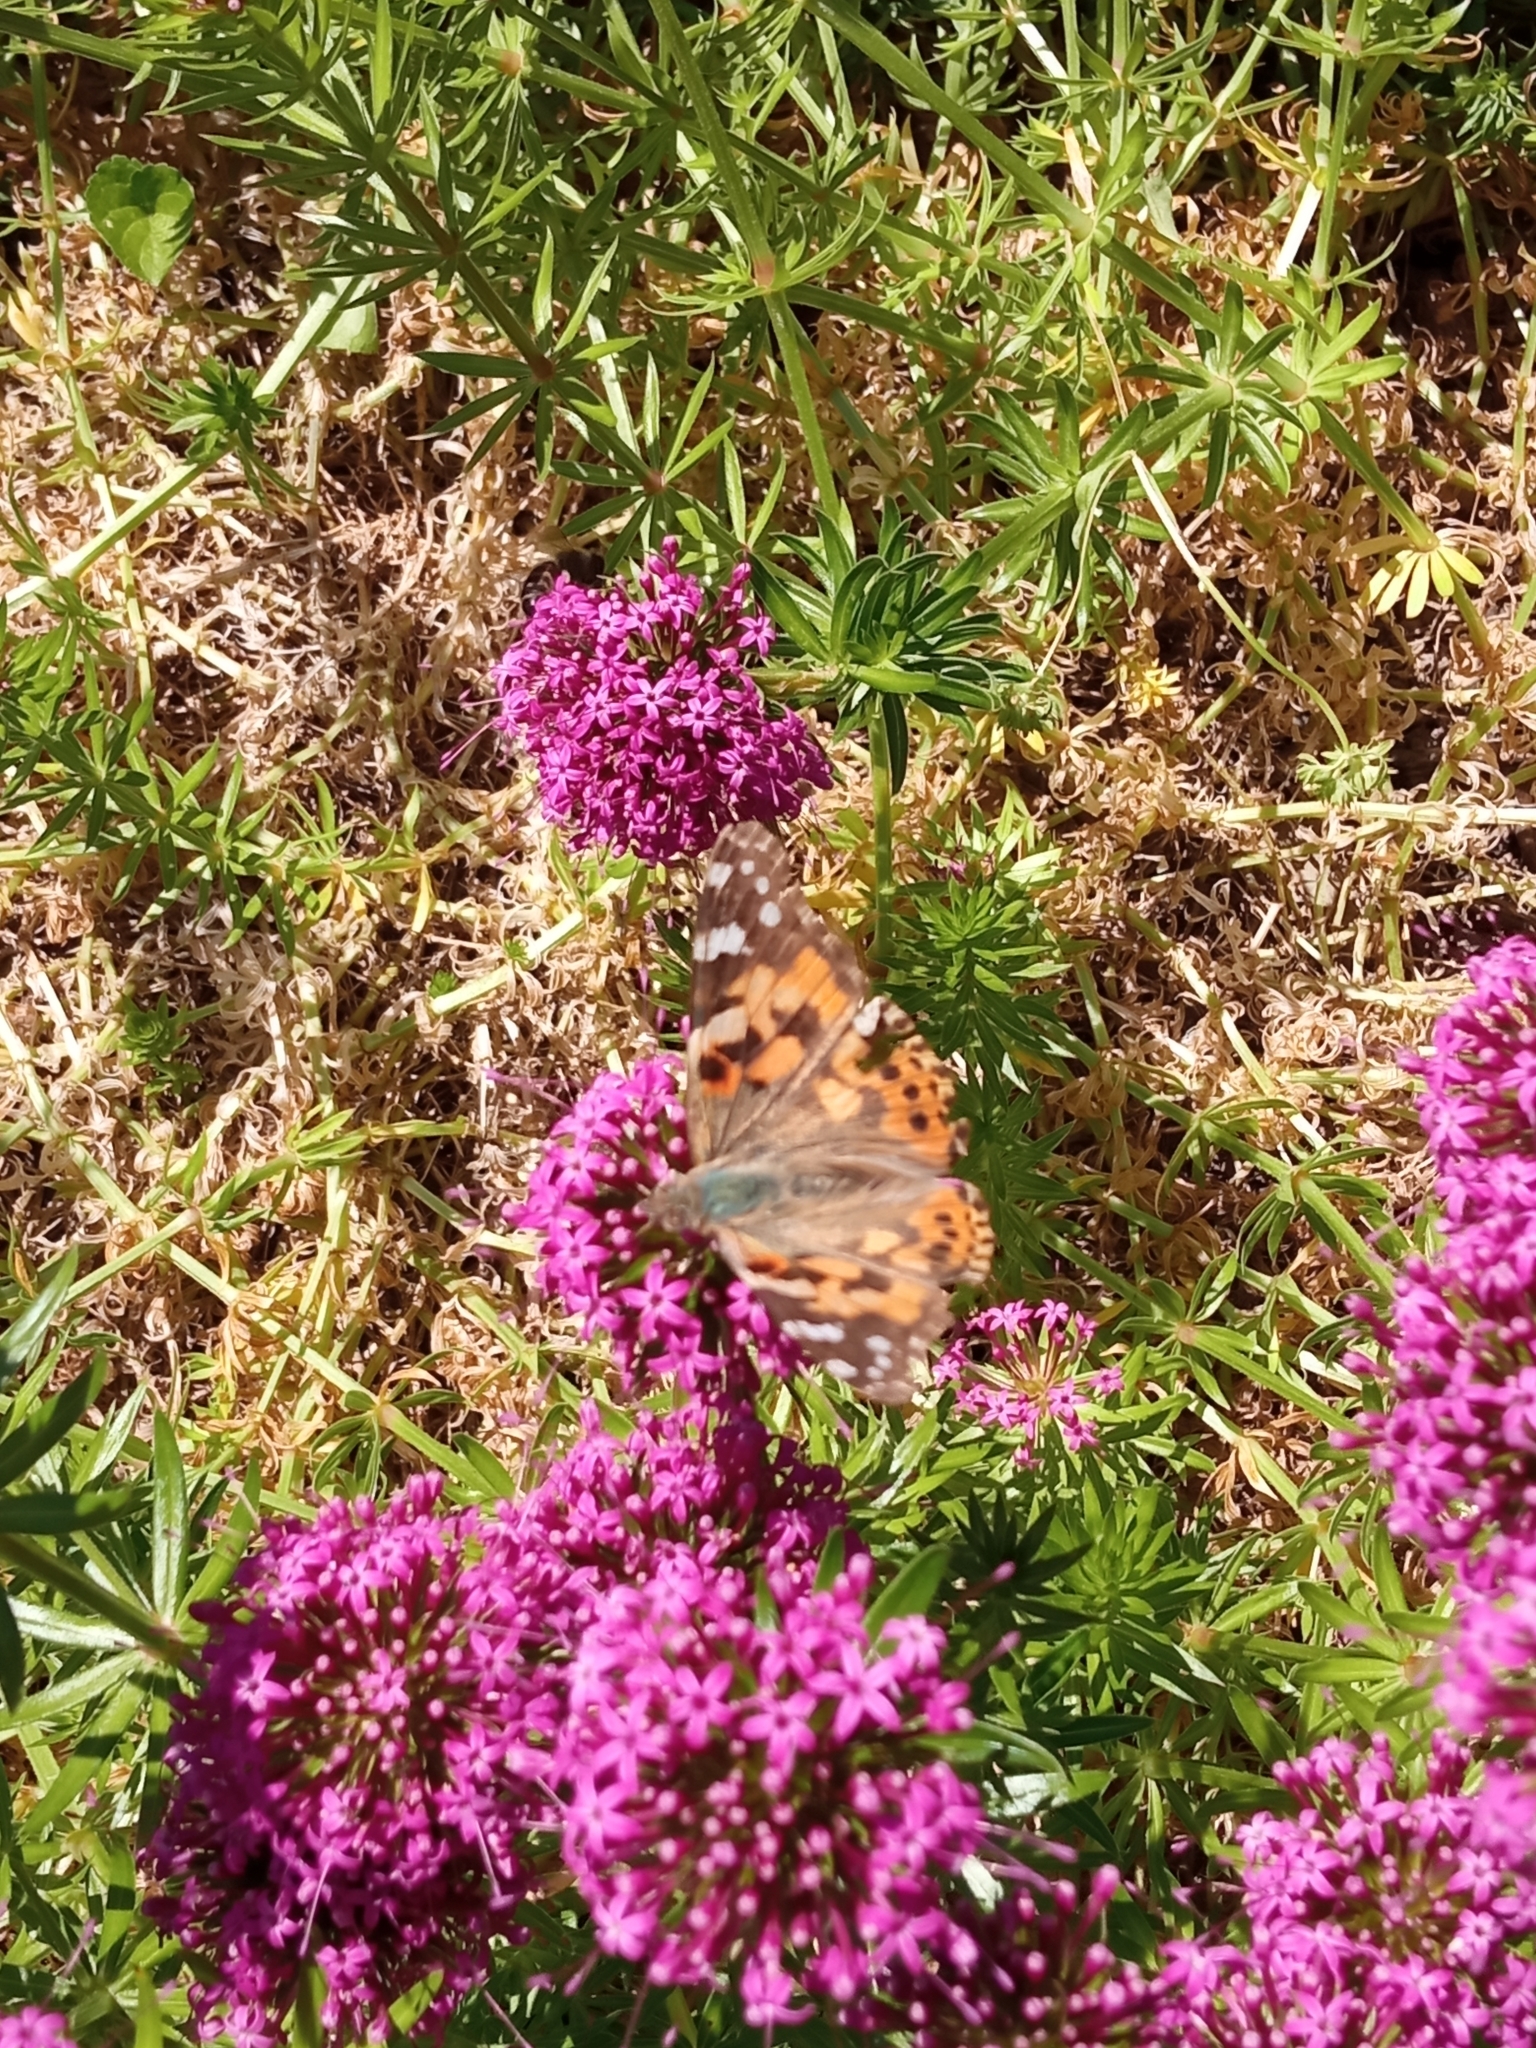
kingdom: Animalia
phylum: Arthropoda
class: Insecta
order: Lepidoptera
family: Nymphalidae
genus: Vanessa
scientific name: Vanessa cardui
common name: Painted lady
